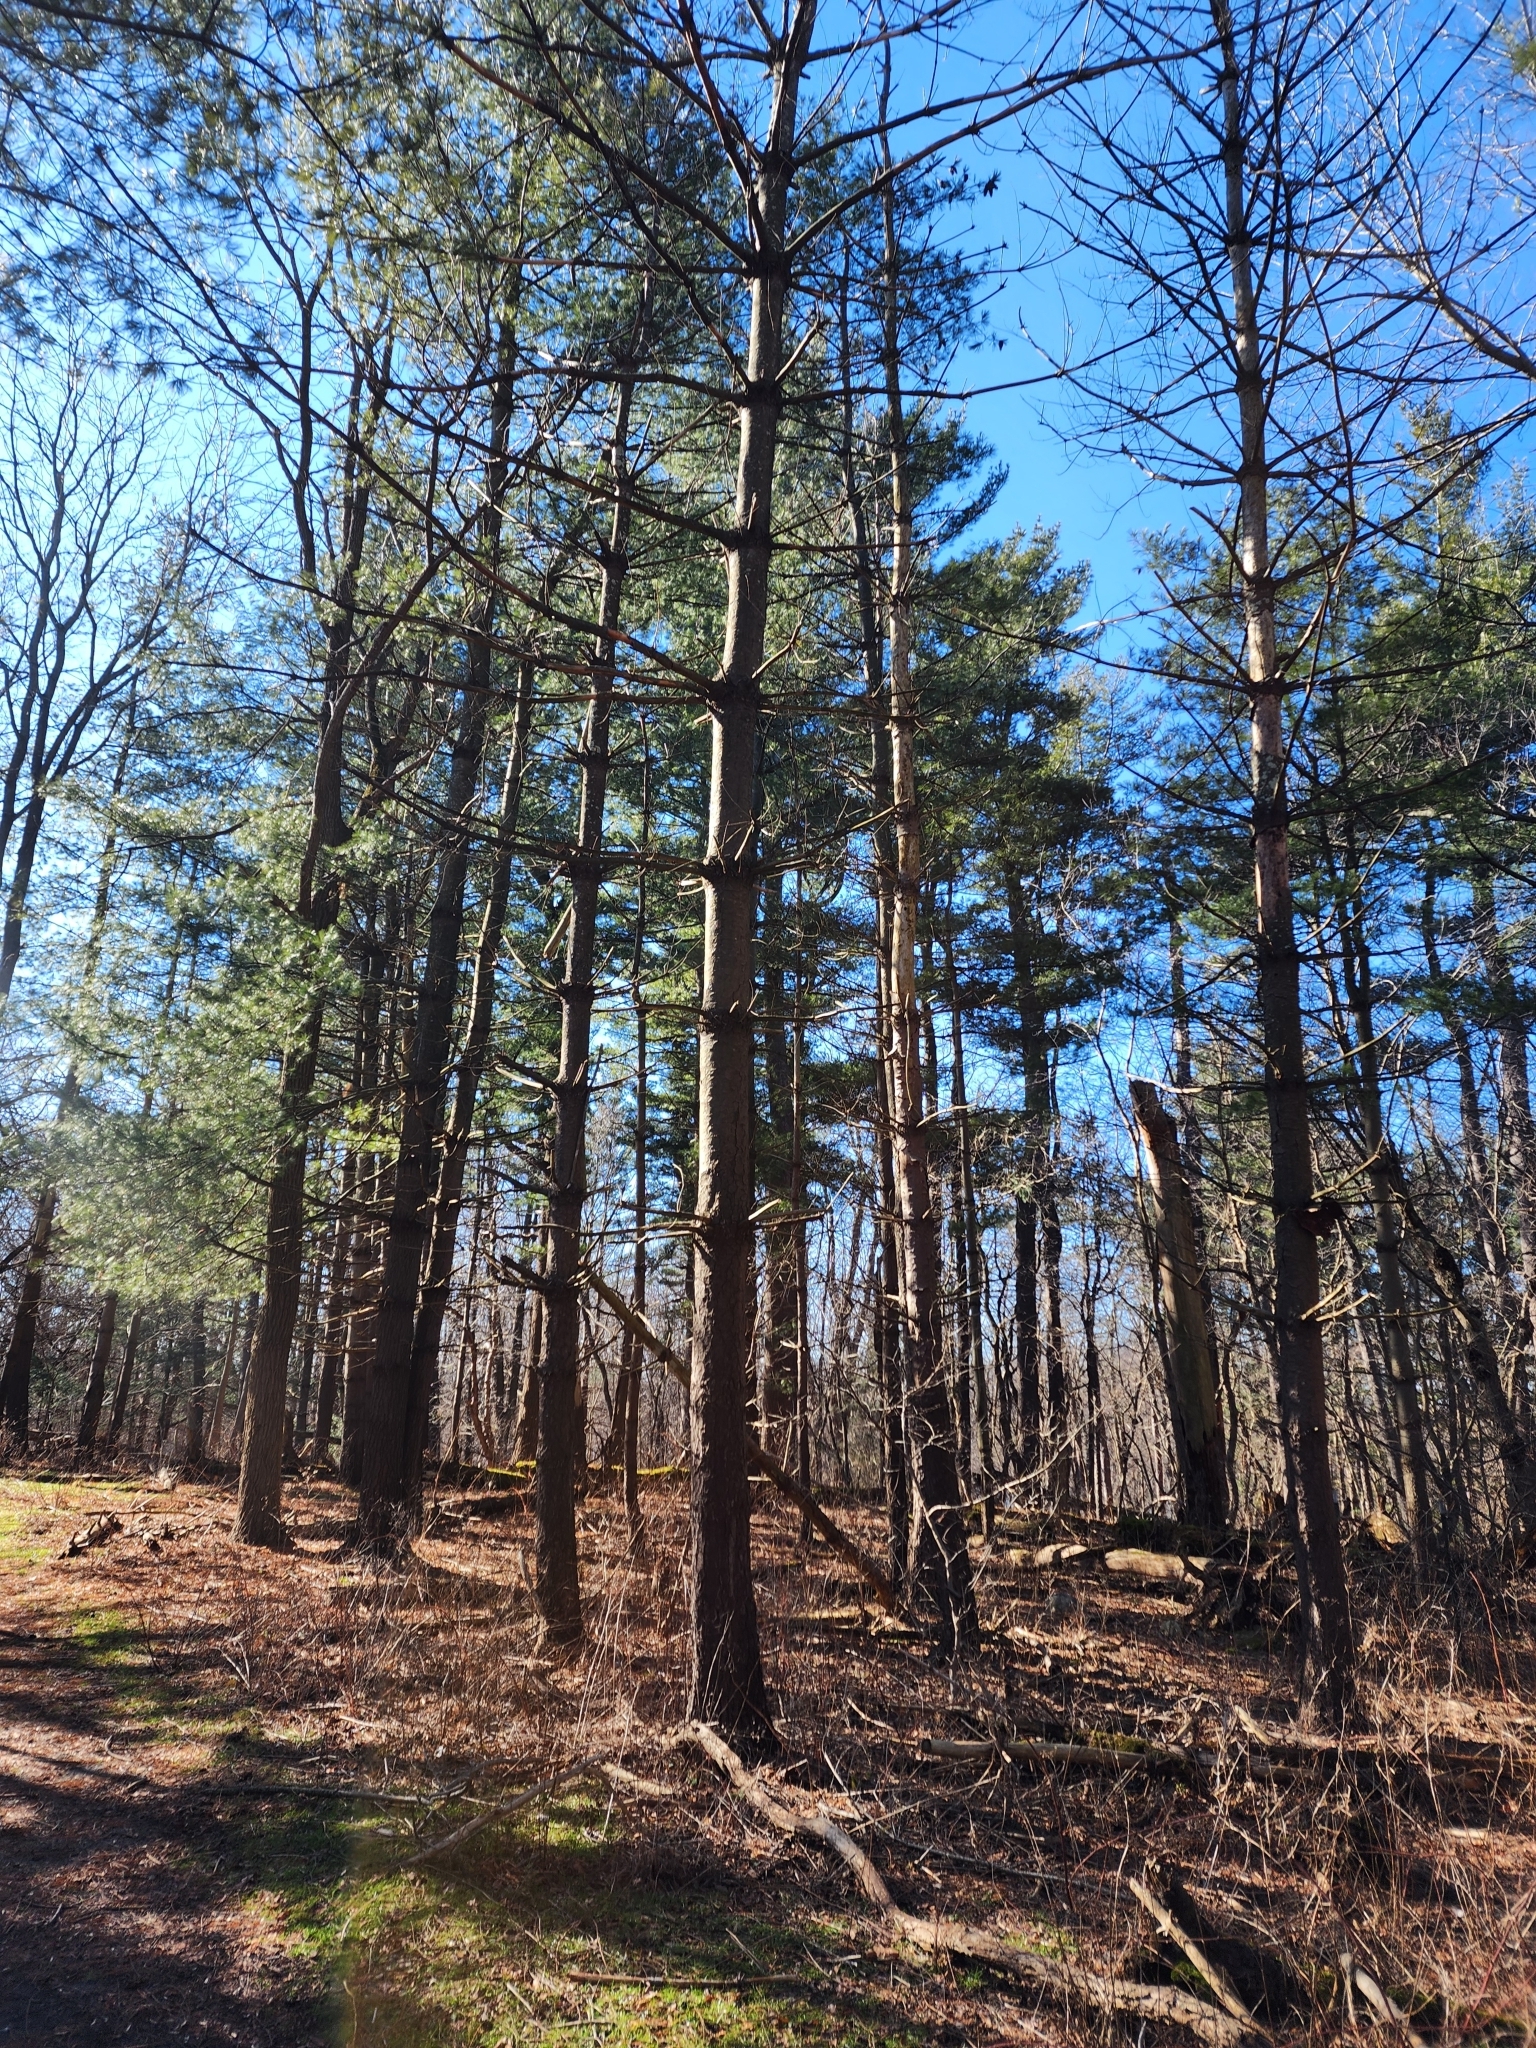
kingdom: Plantae
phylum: Tracheophyta
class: Pinopsida
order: Pinales
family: Pinaceae
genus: Pinus
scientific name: Pinus strobus
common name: Weymouth pine
